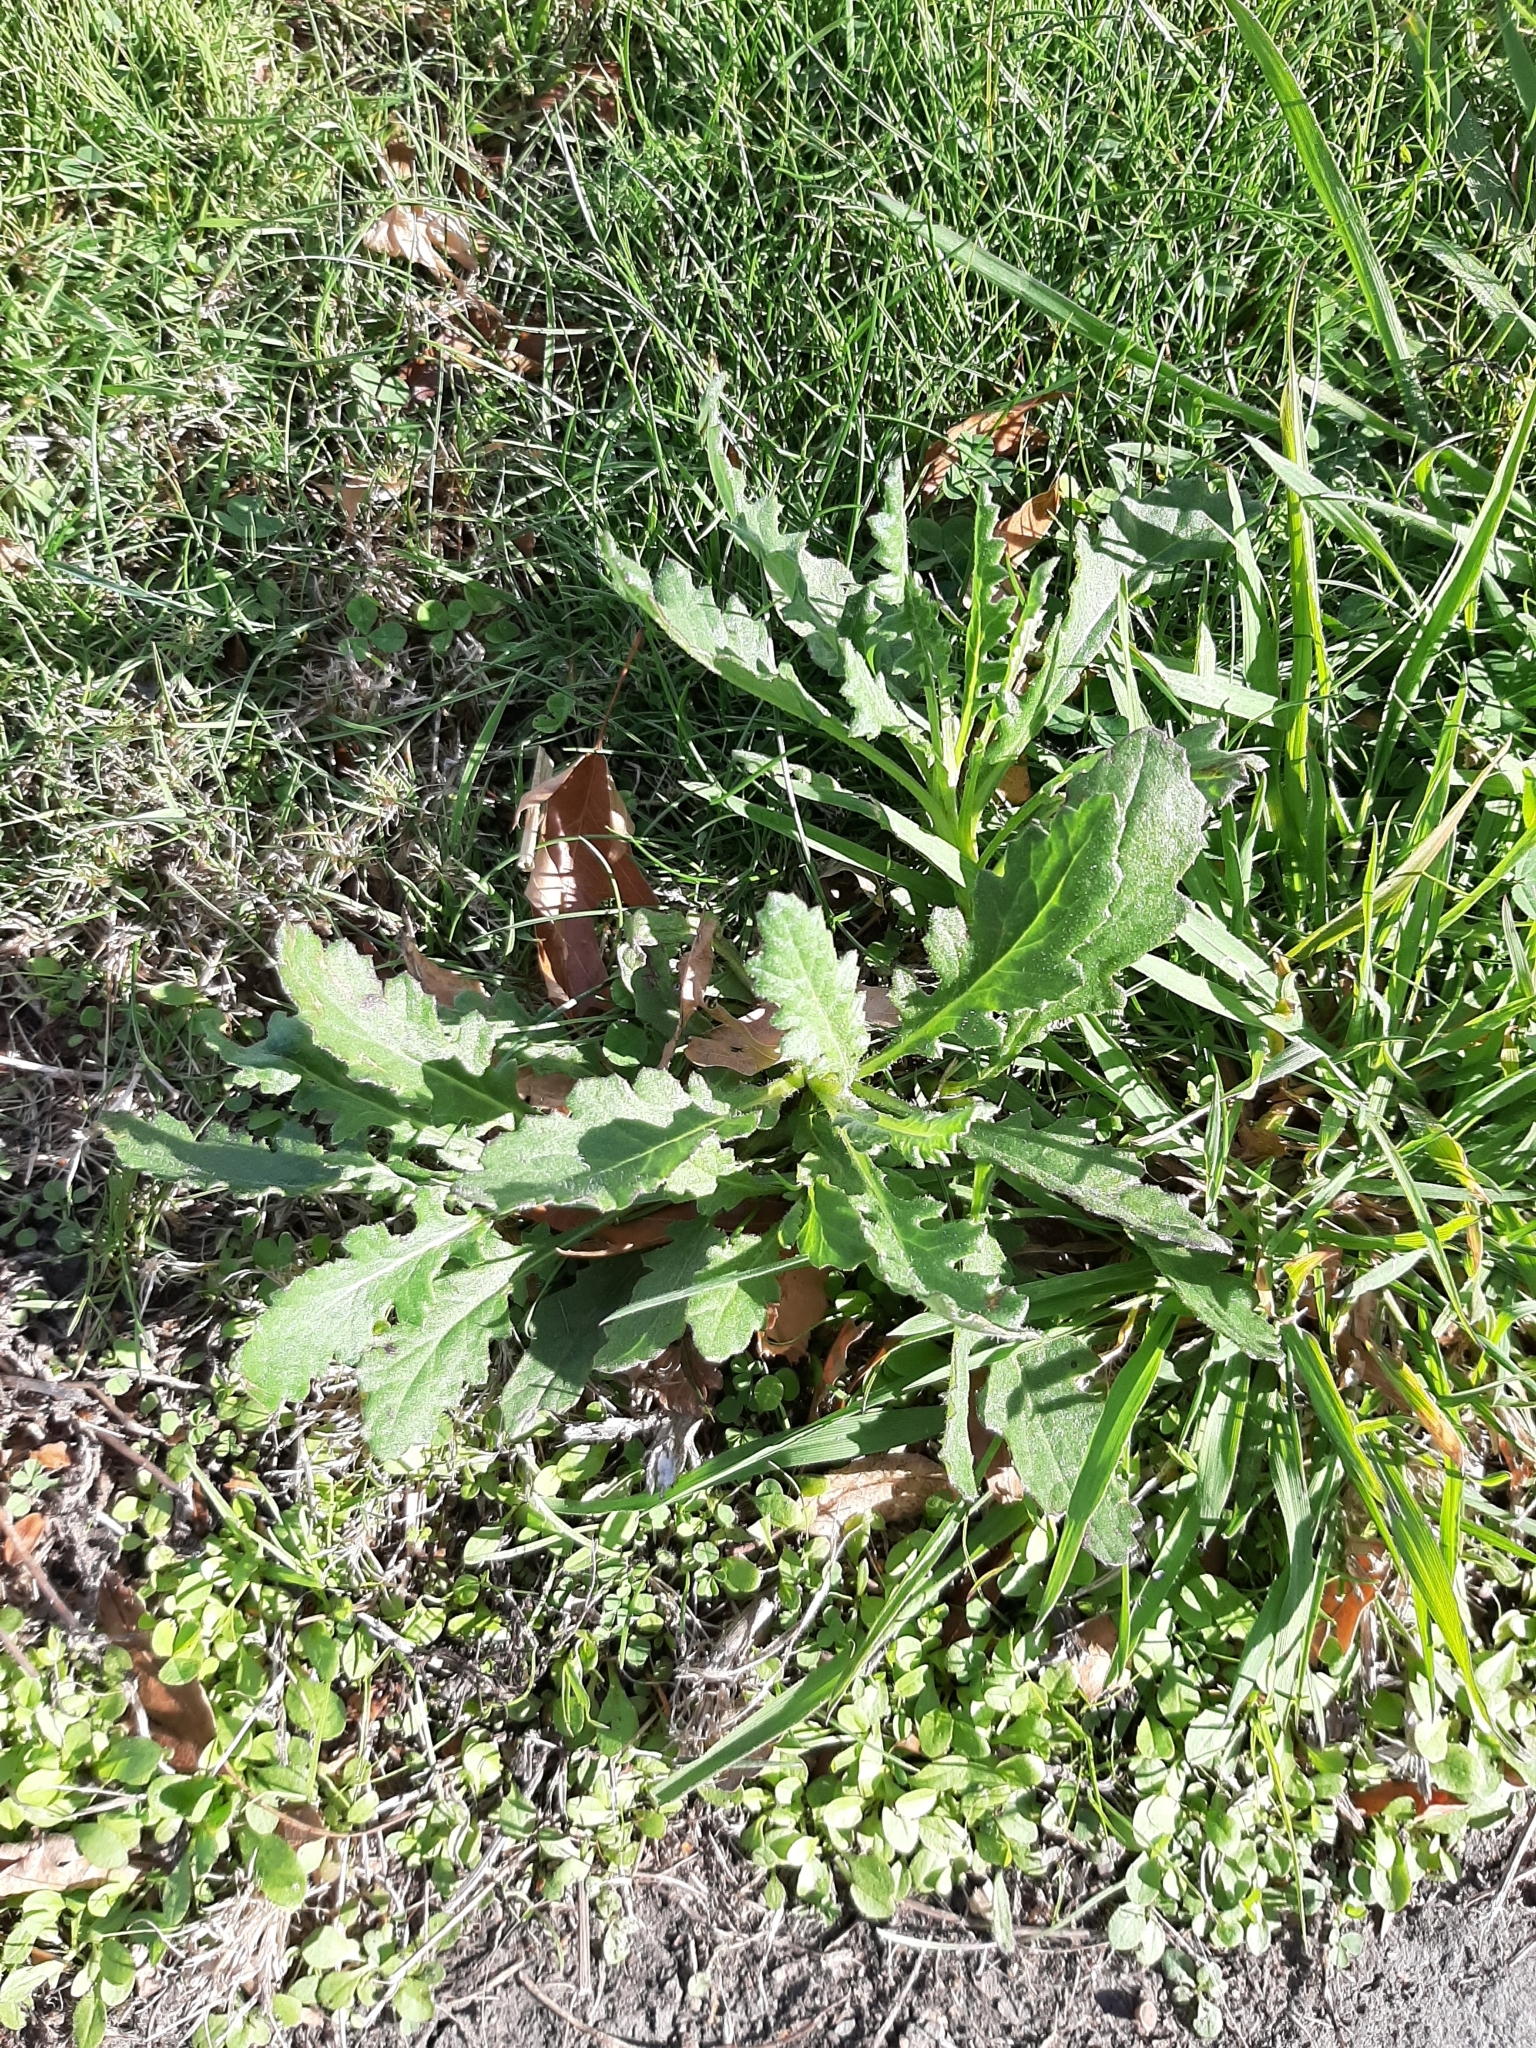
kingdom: Plantae
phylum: Tracheophyta
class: Magnoliopsida
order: Asterales
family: Asteraceae
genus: Senecio
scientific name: Senecio glomeratus
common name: Cutleaf burnweed
